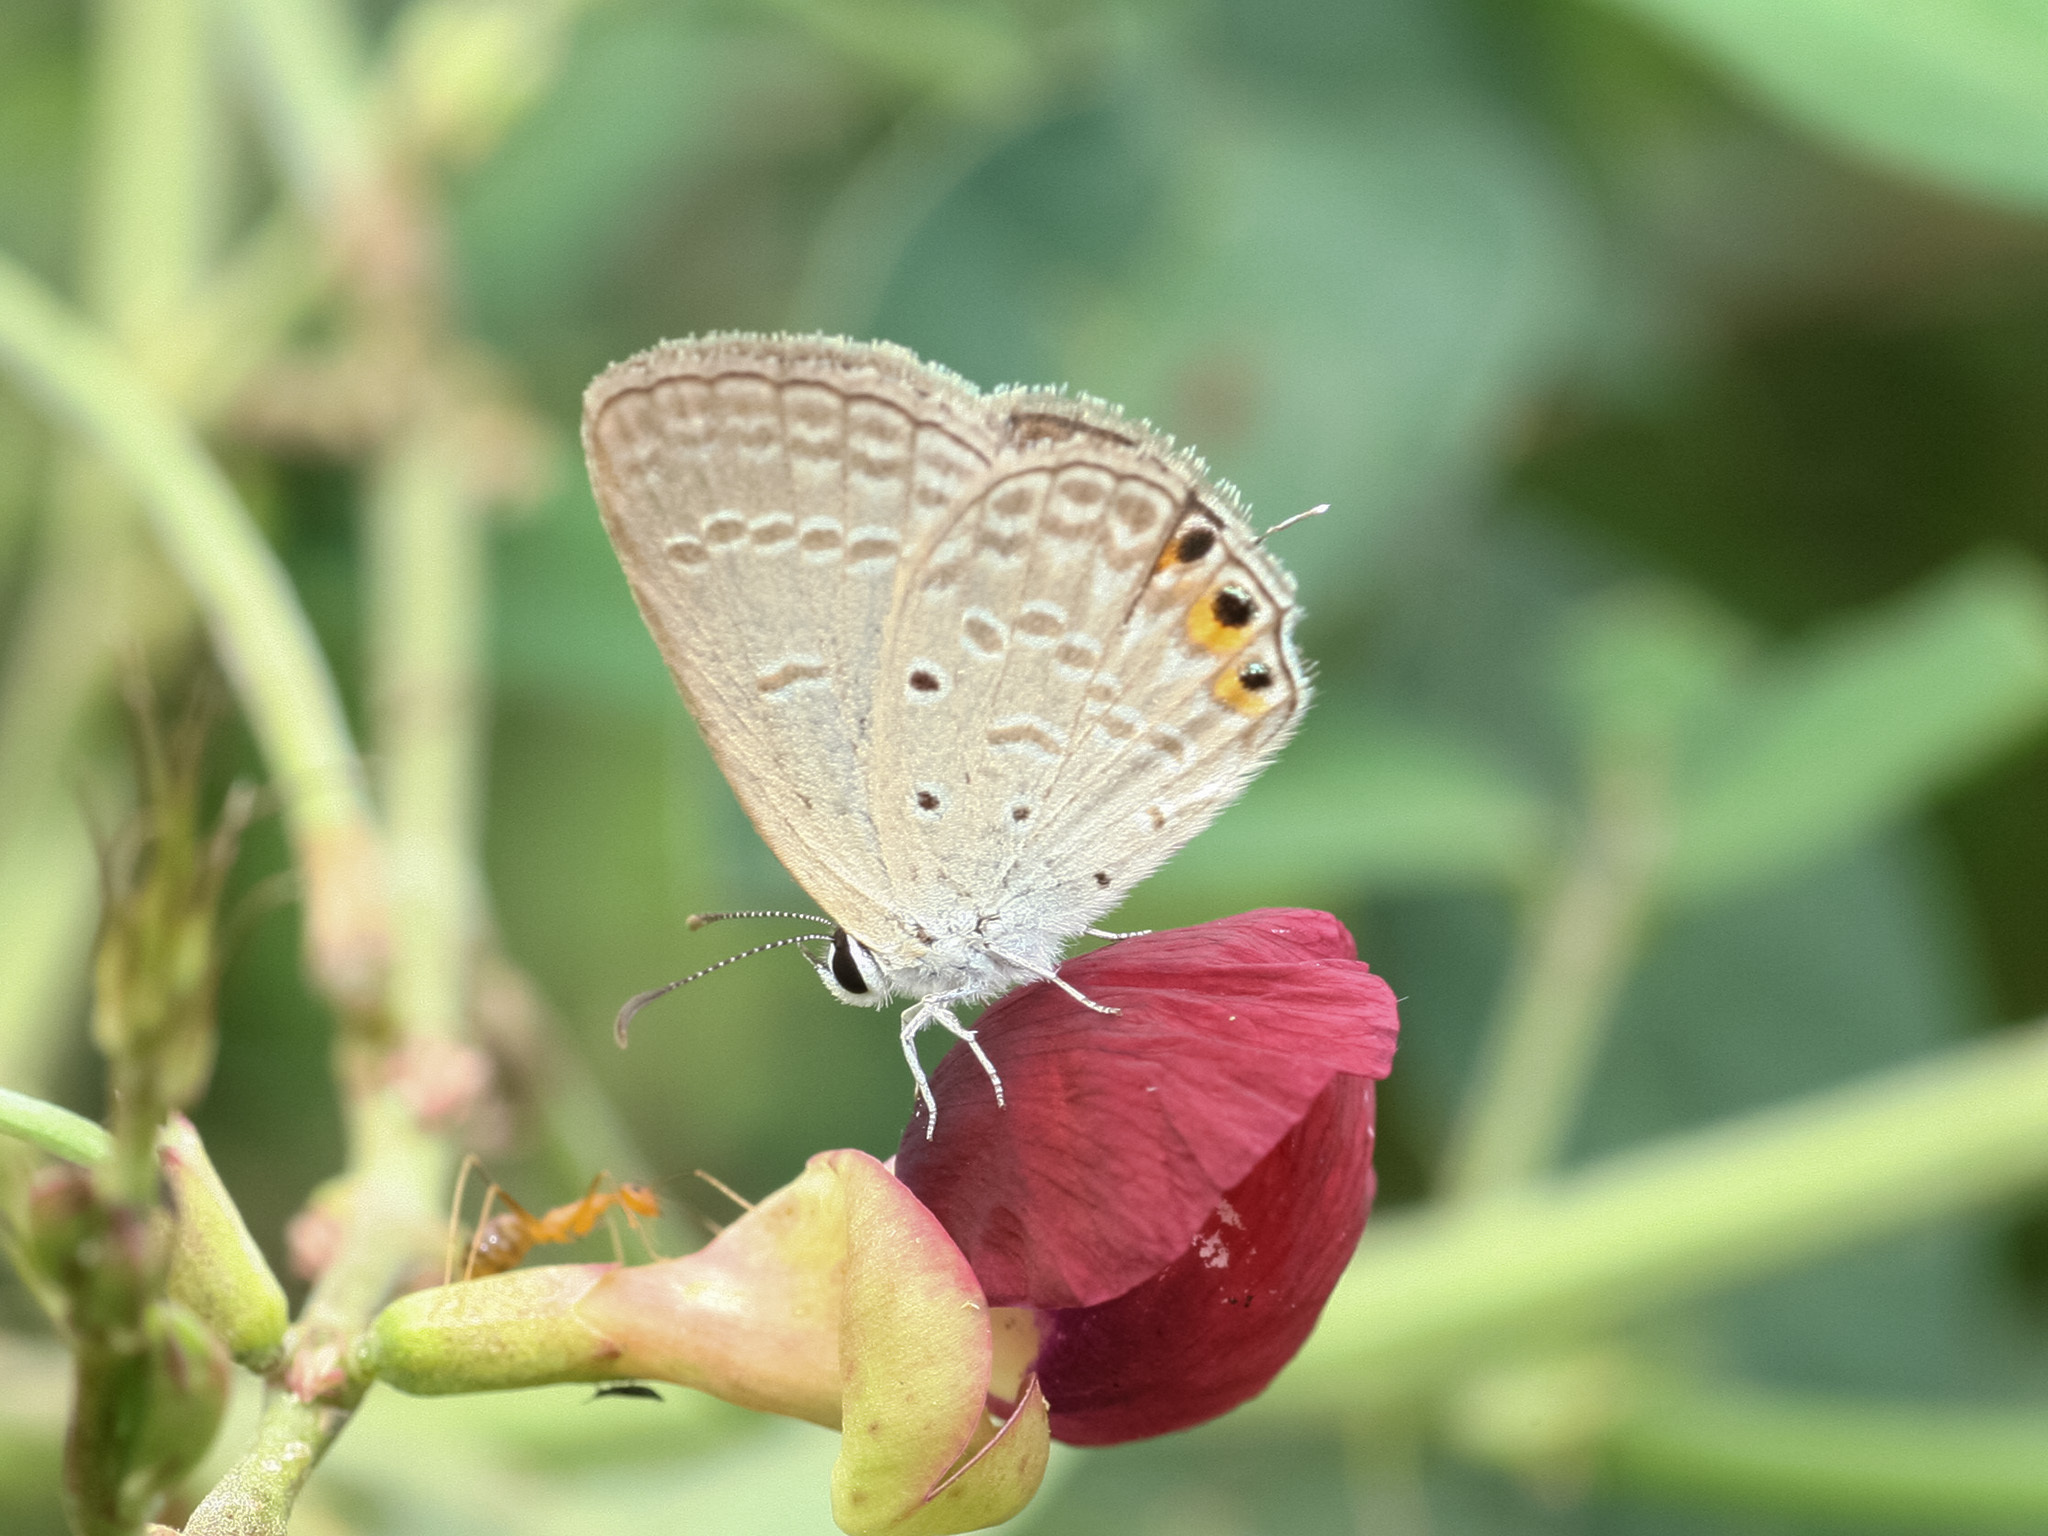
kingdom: Animalia
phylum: Arthropoda
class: Insecta
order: Lepidoptera
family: Lycaenidae
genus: Euchrysops
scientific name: Euchrysops cnejus
